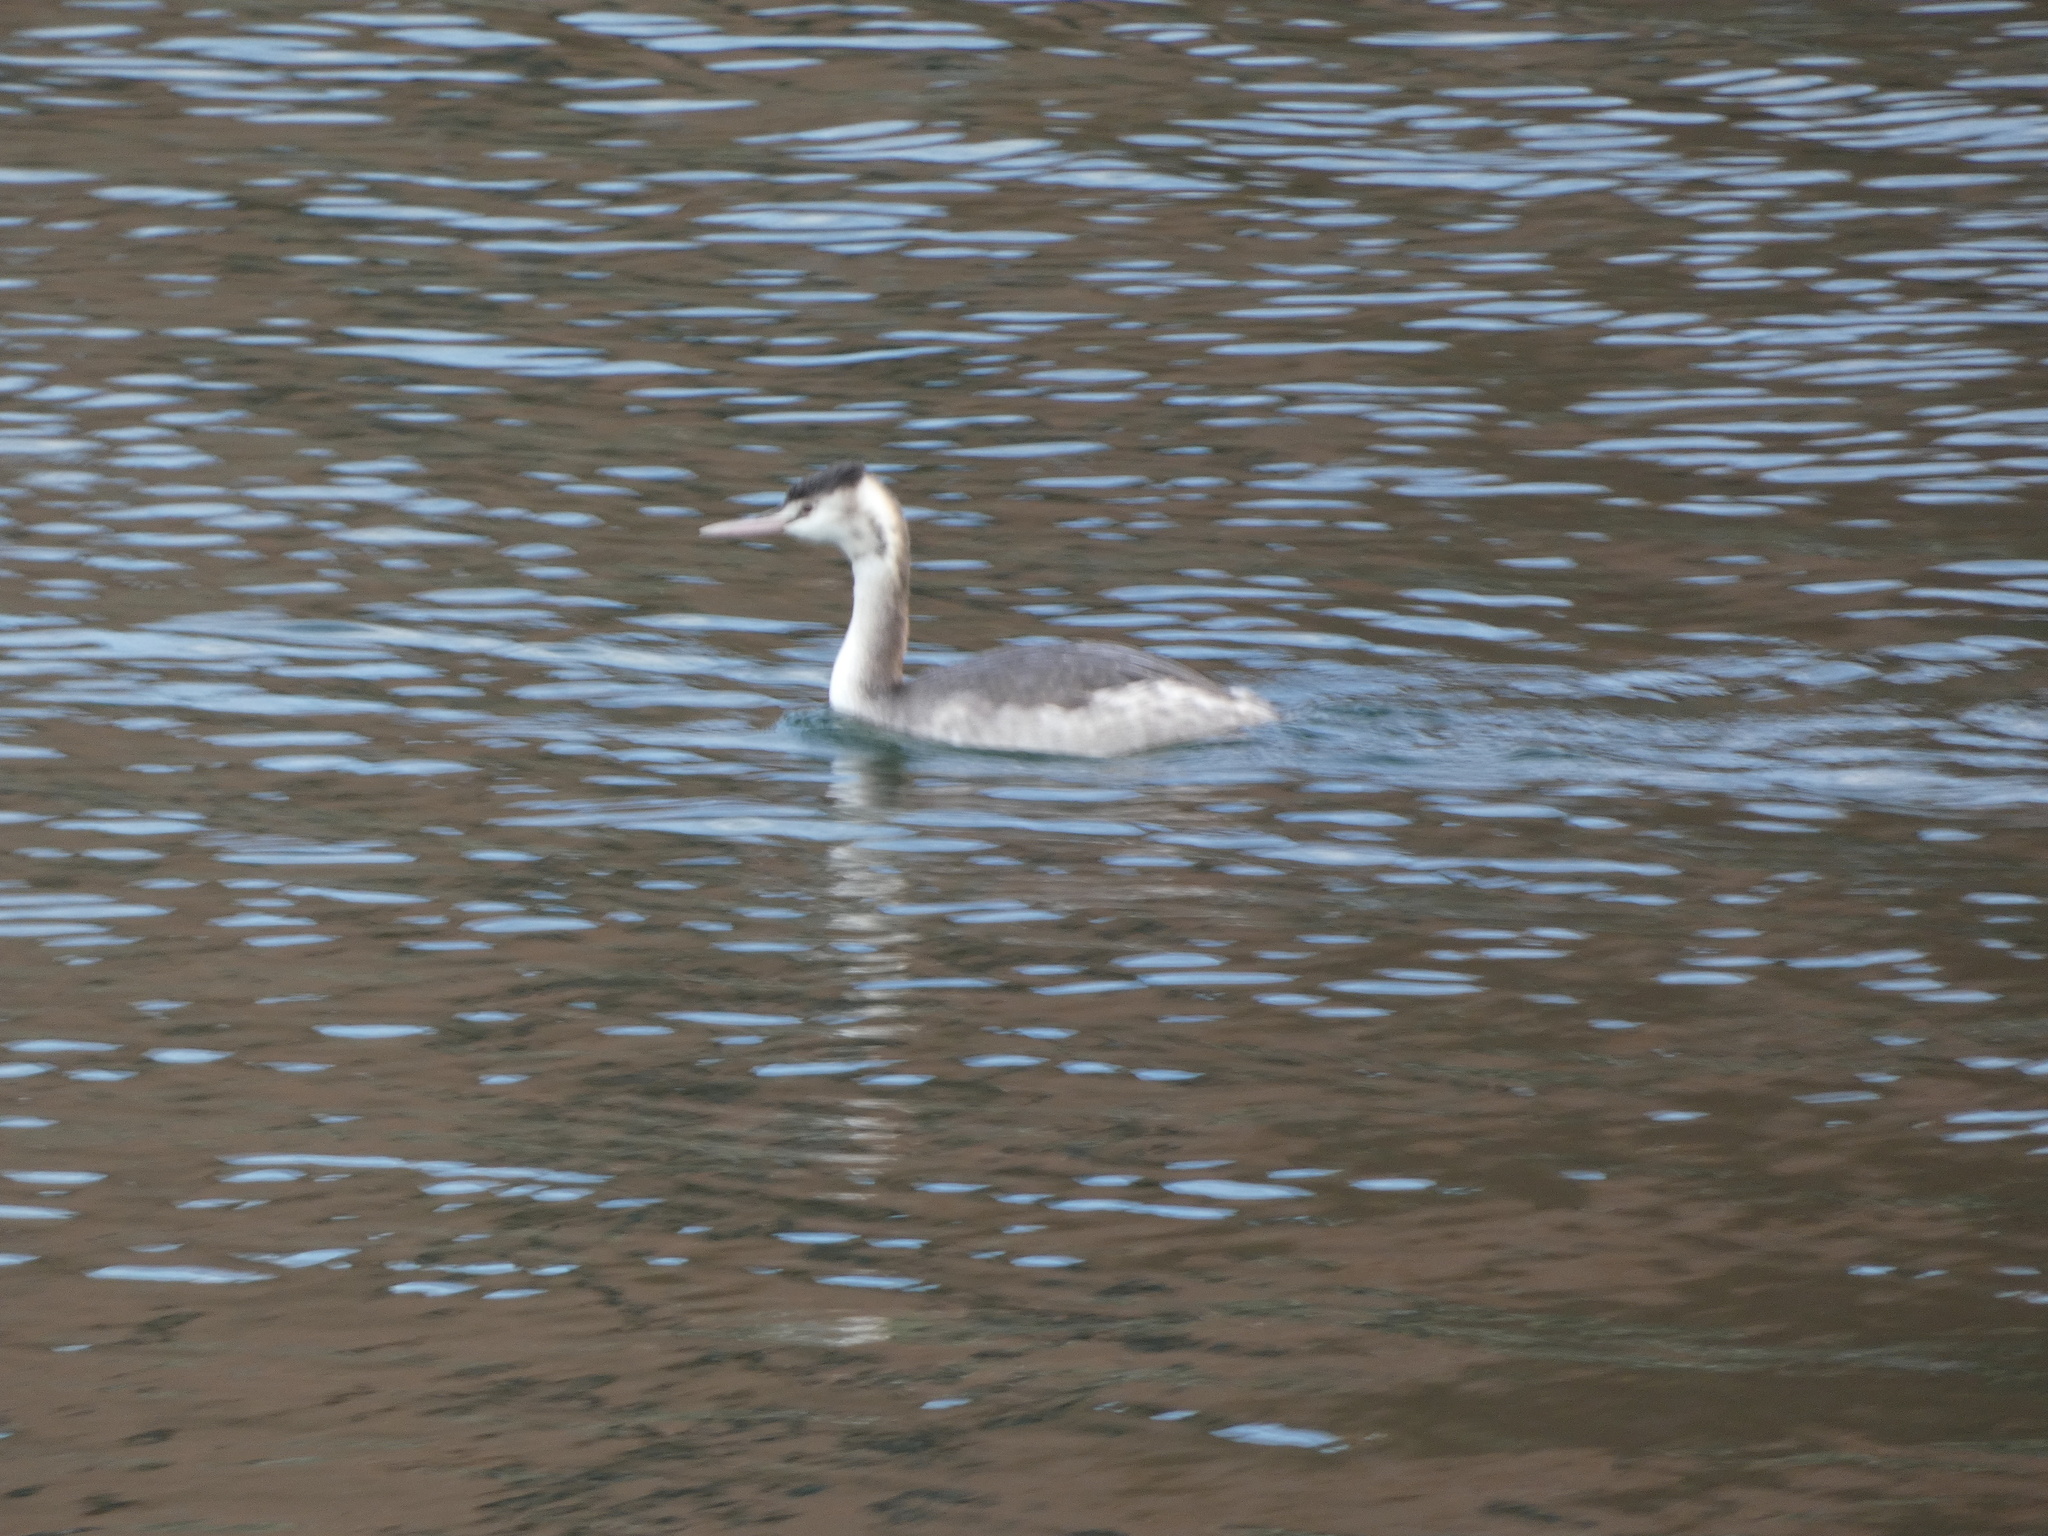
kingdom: Animalia
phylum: Chordata
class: Aves
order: Podicipediformes
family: Podicipedidae
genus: Podiceps
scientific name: Podiceps cristatus
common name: Great crested grebe
